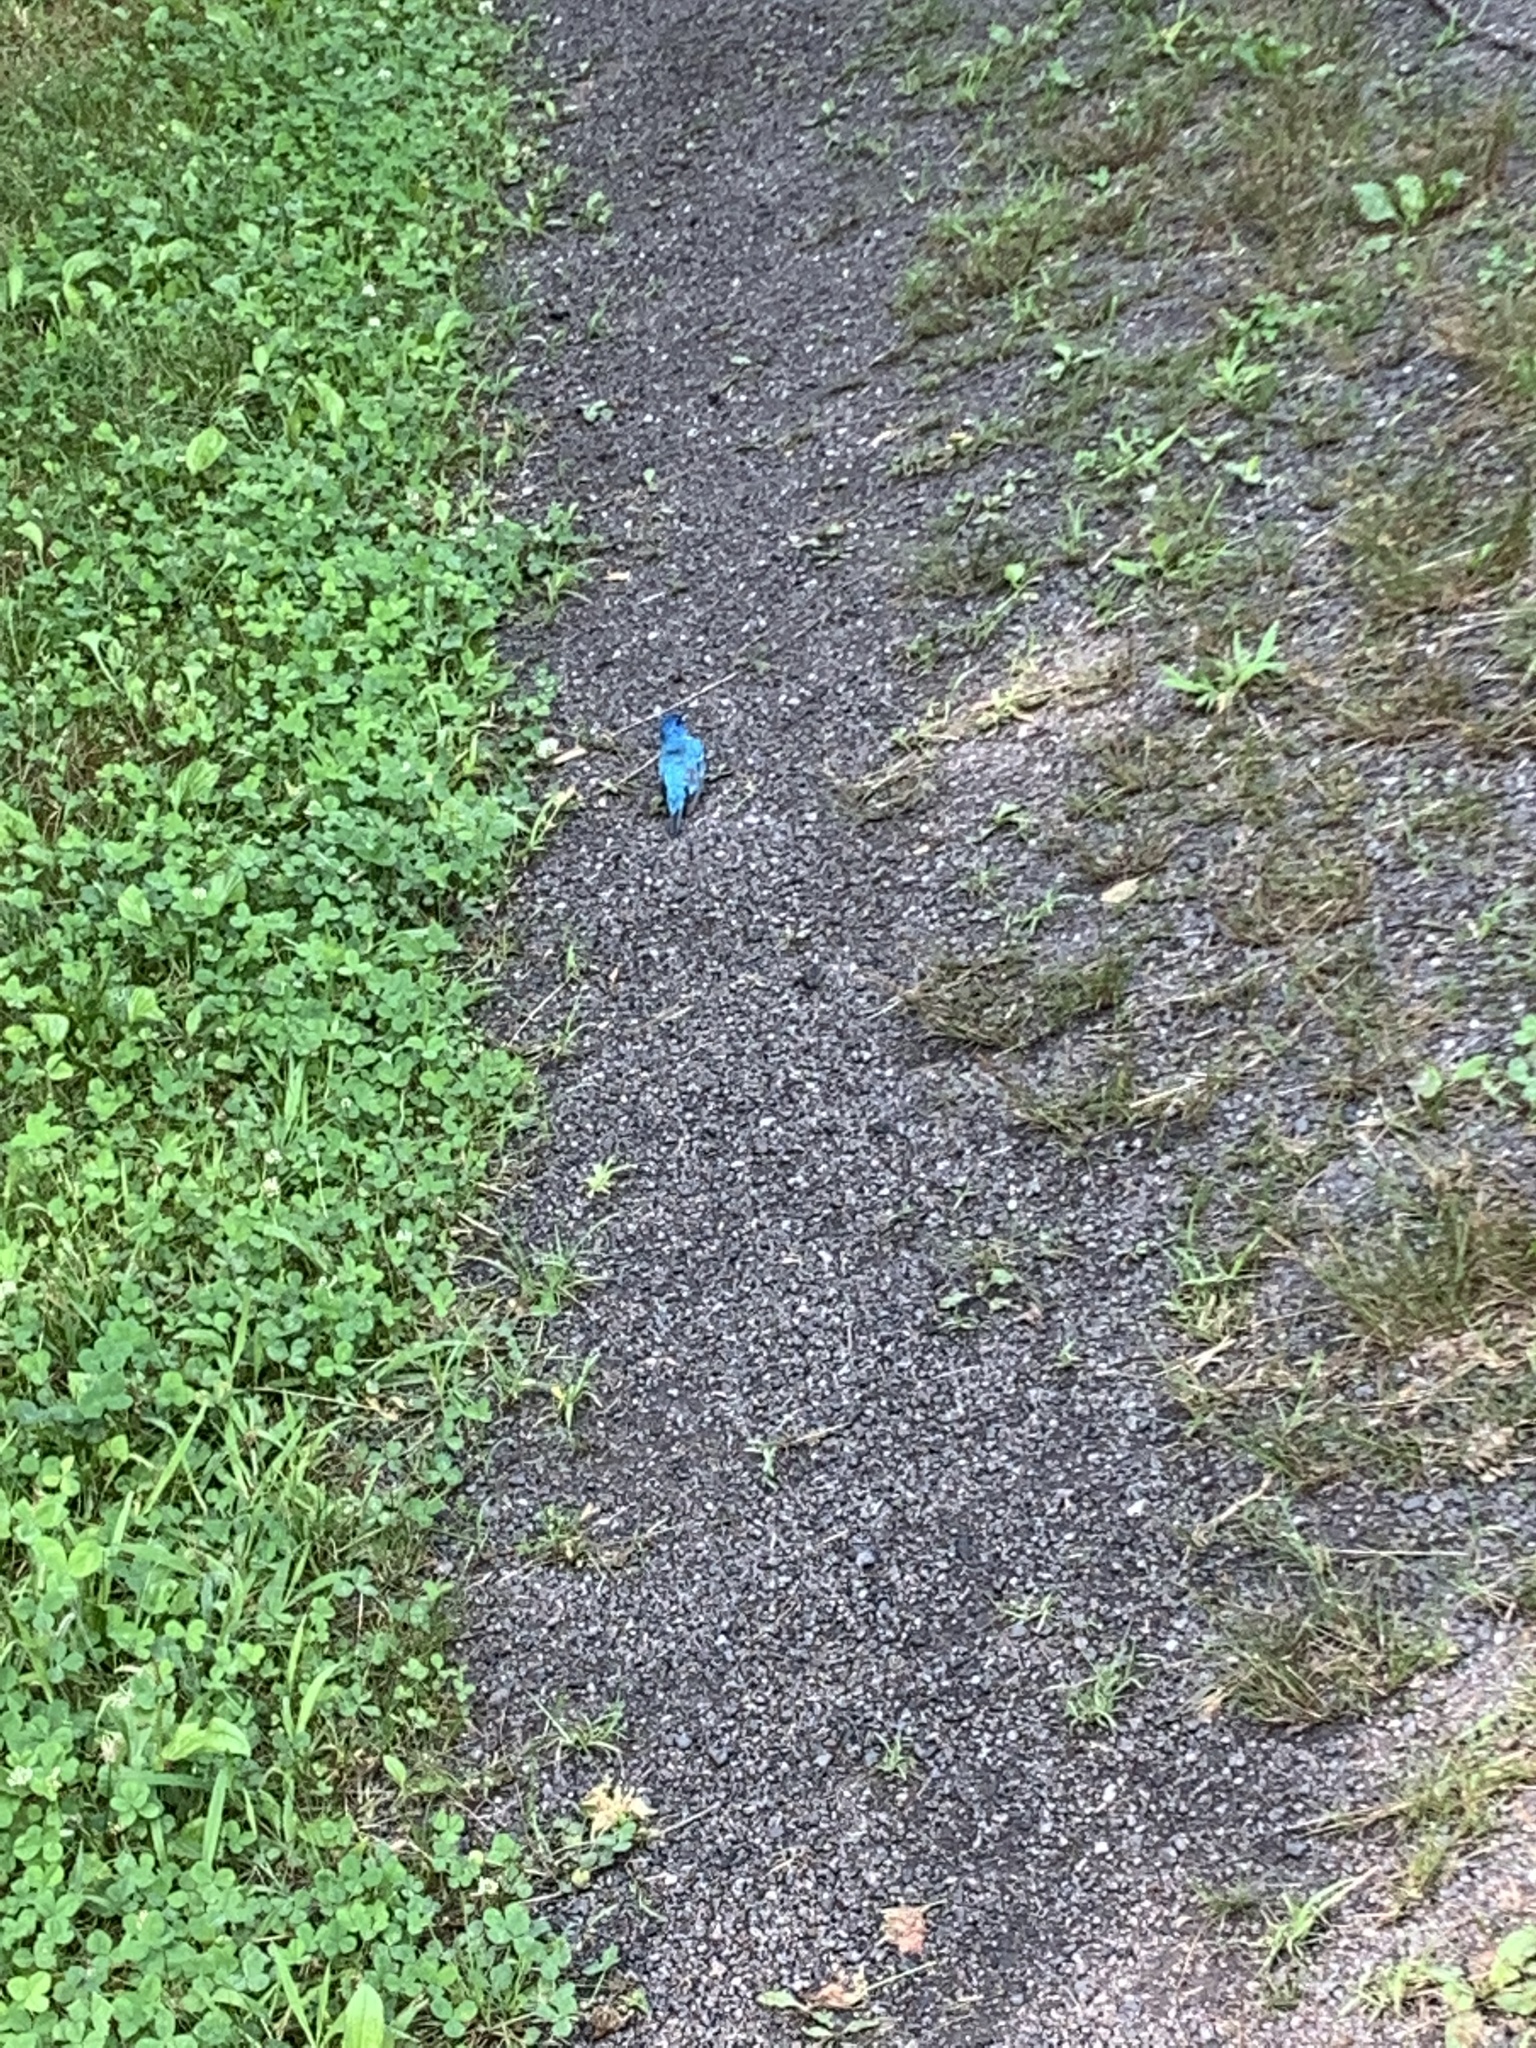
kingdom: Animalia
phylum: Chordata
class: Aves
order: Passeriformes
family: Cardinalidae
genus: Passerina
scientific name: Passerina cyanea
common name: Indigo bunting
